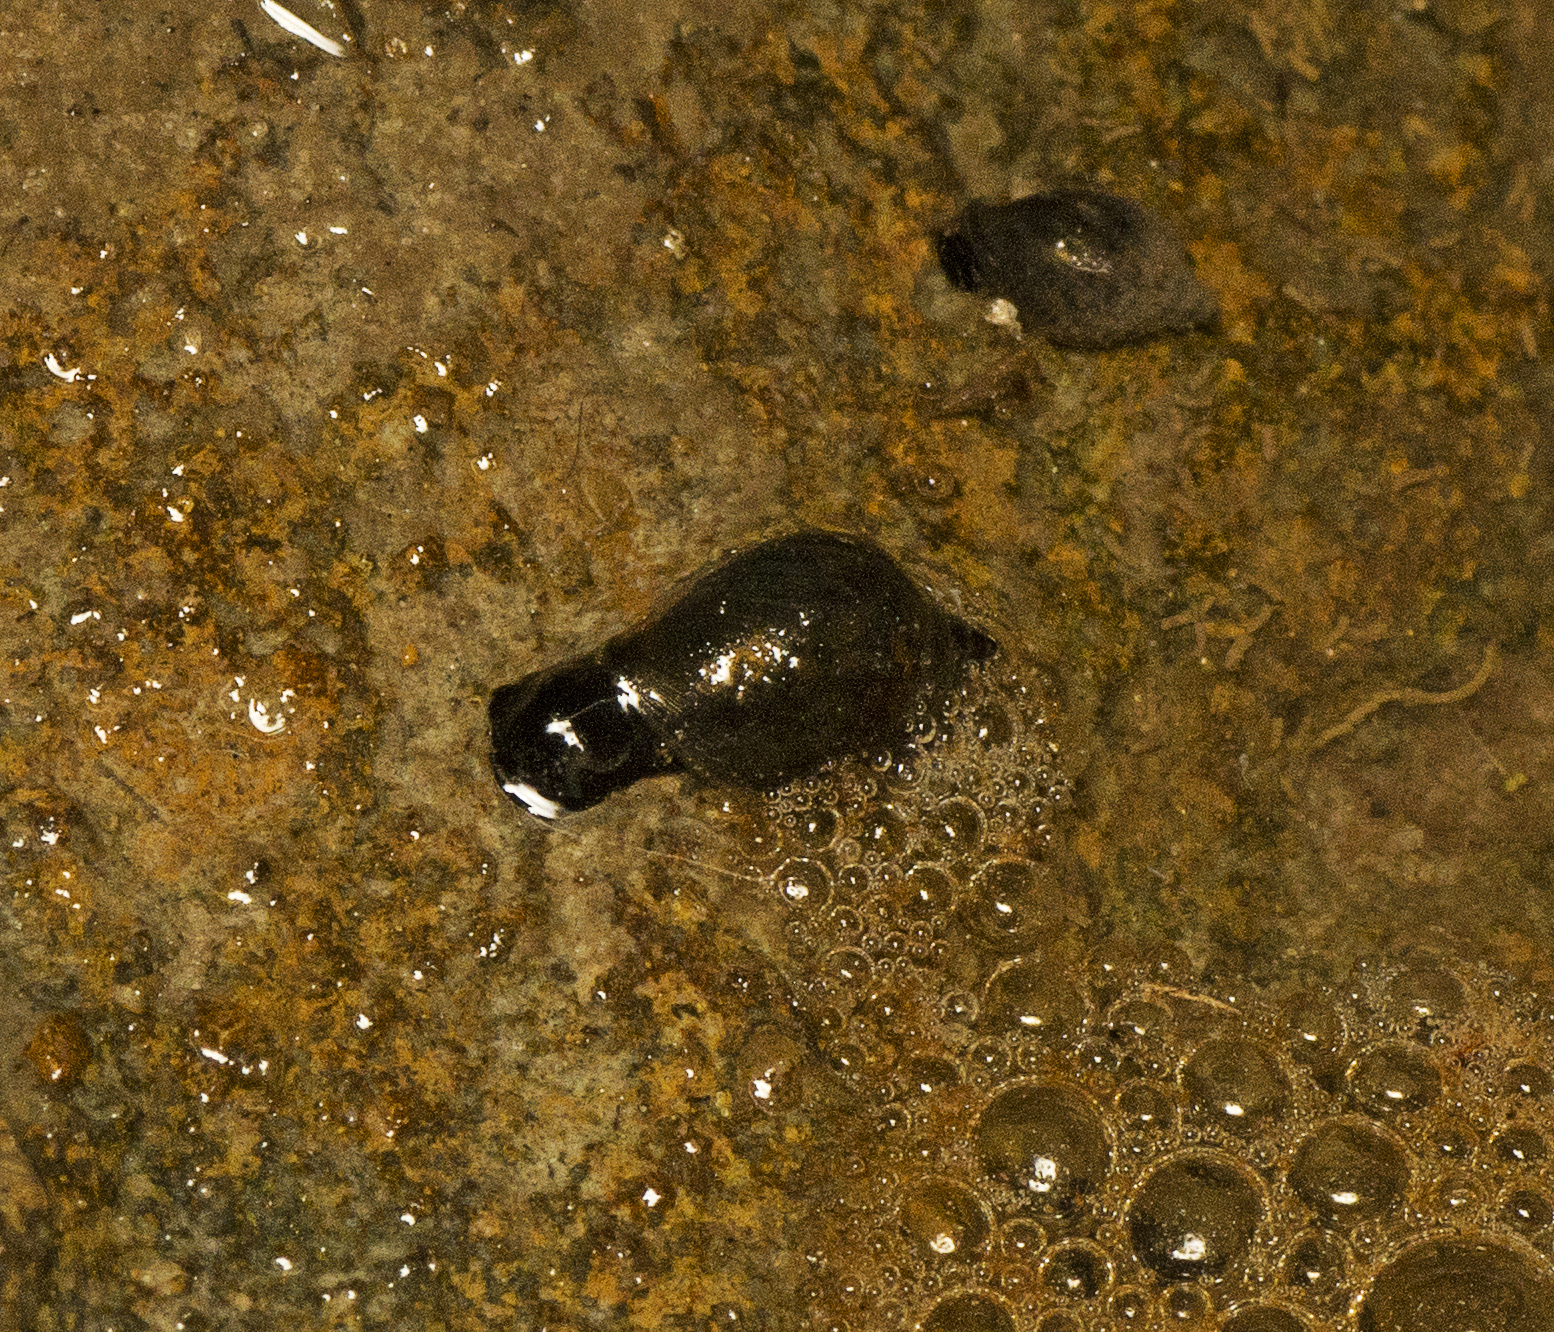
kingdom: Animalia
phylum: Mollusca
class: Gastropoda
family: Planorbidae
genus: Glyptophysa
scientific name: Glyptophysa novaehollandica
